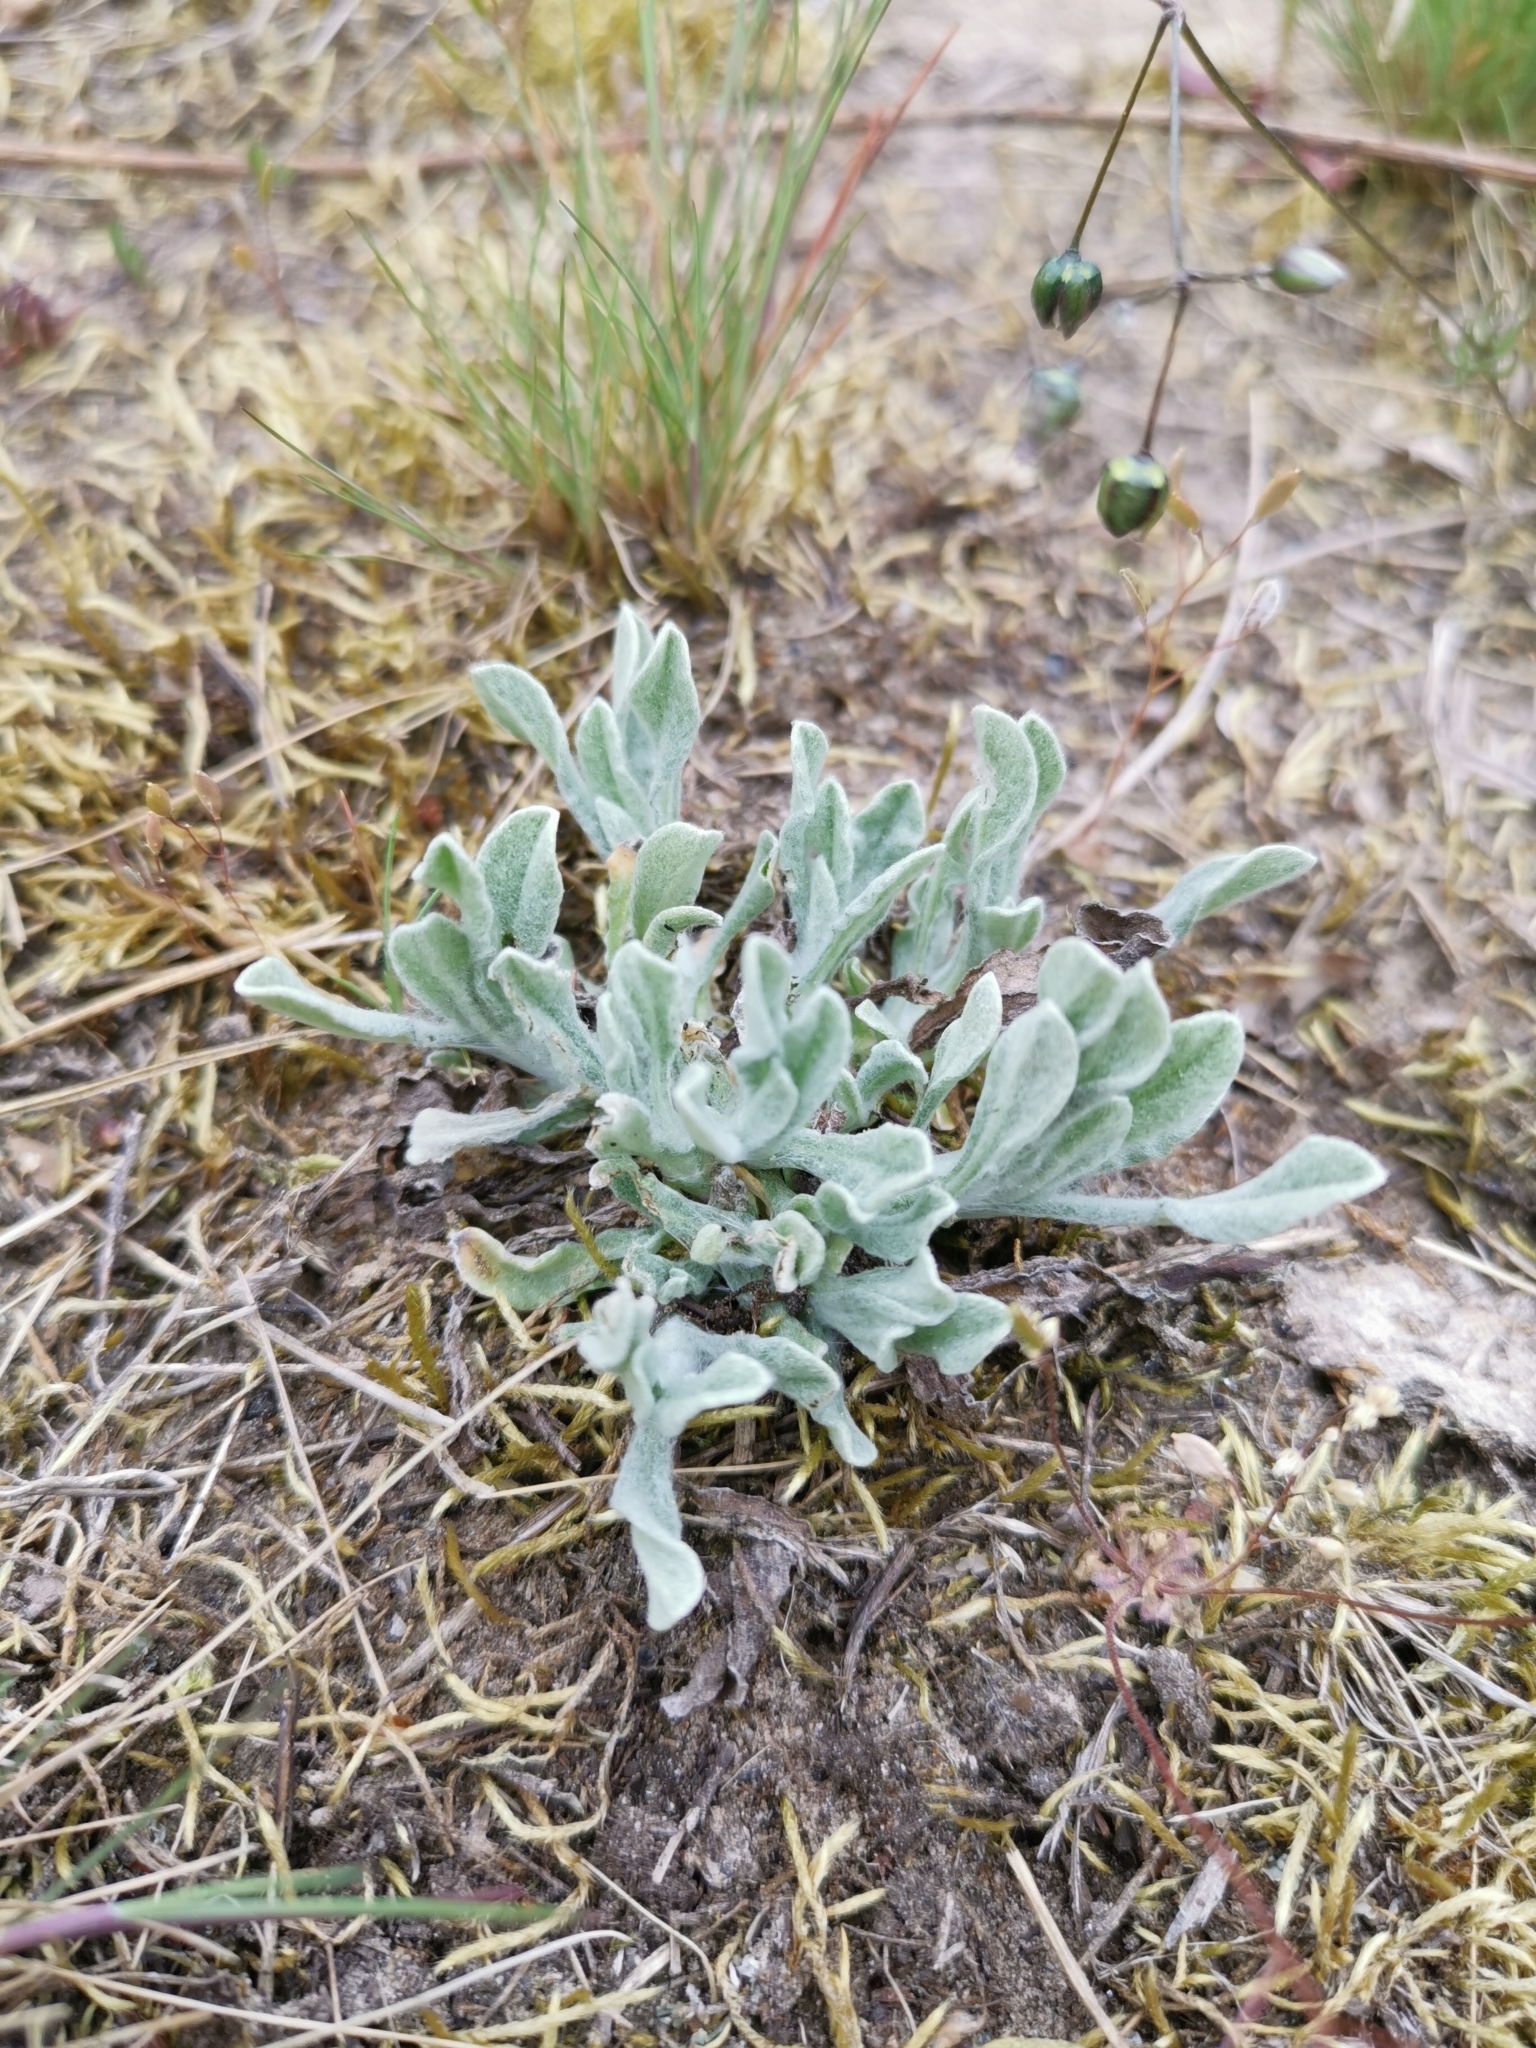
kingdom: Plantae
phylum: Tracheophyta
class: Magnoliopsida
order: Asterales
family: Asteraceae
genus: Helichrysum
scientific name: Helichrysum arenarium
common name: Strawflower
